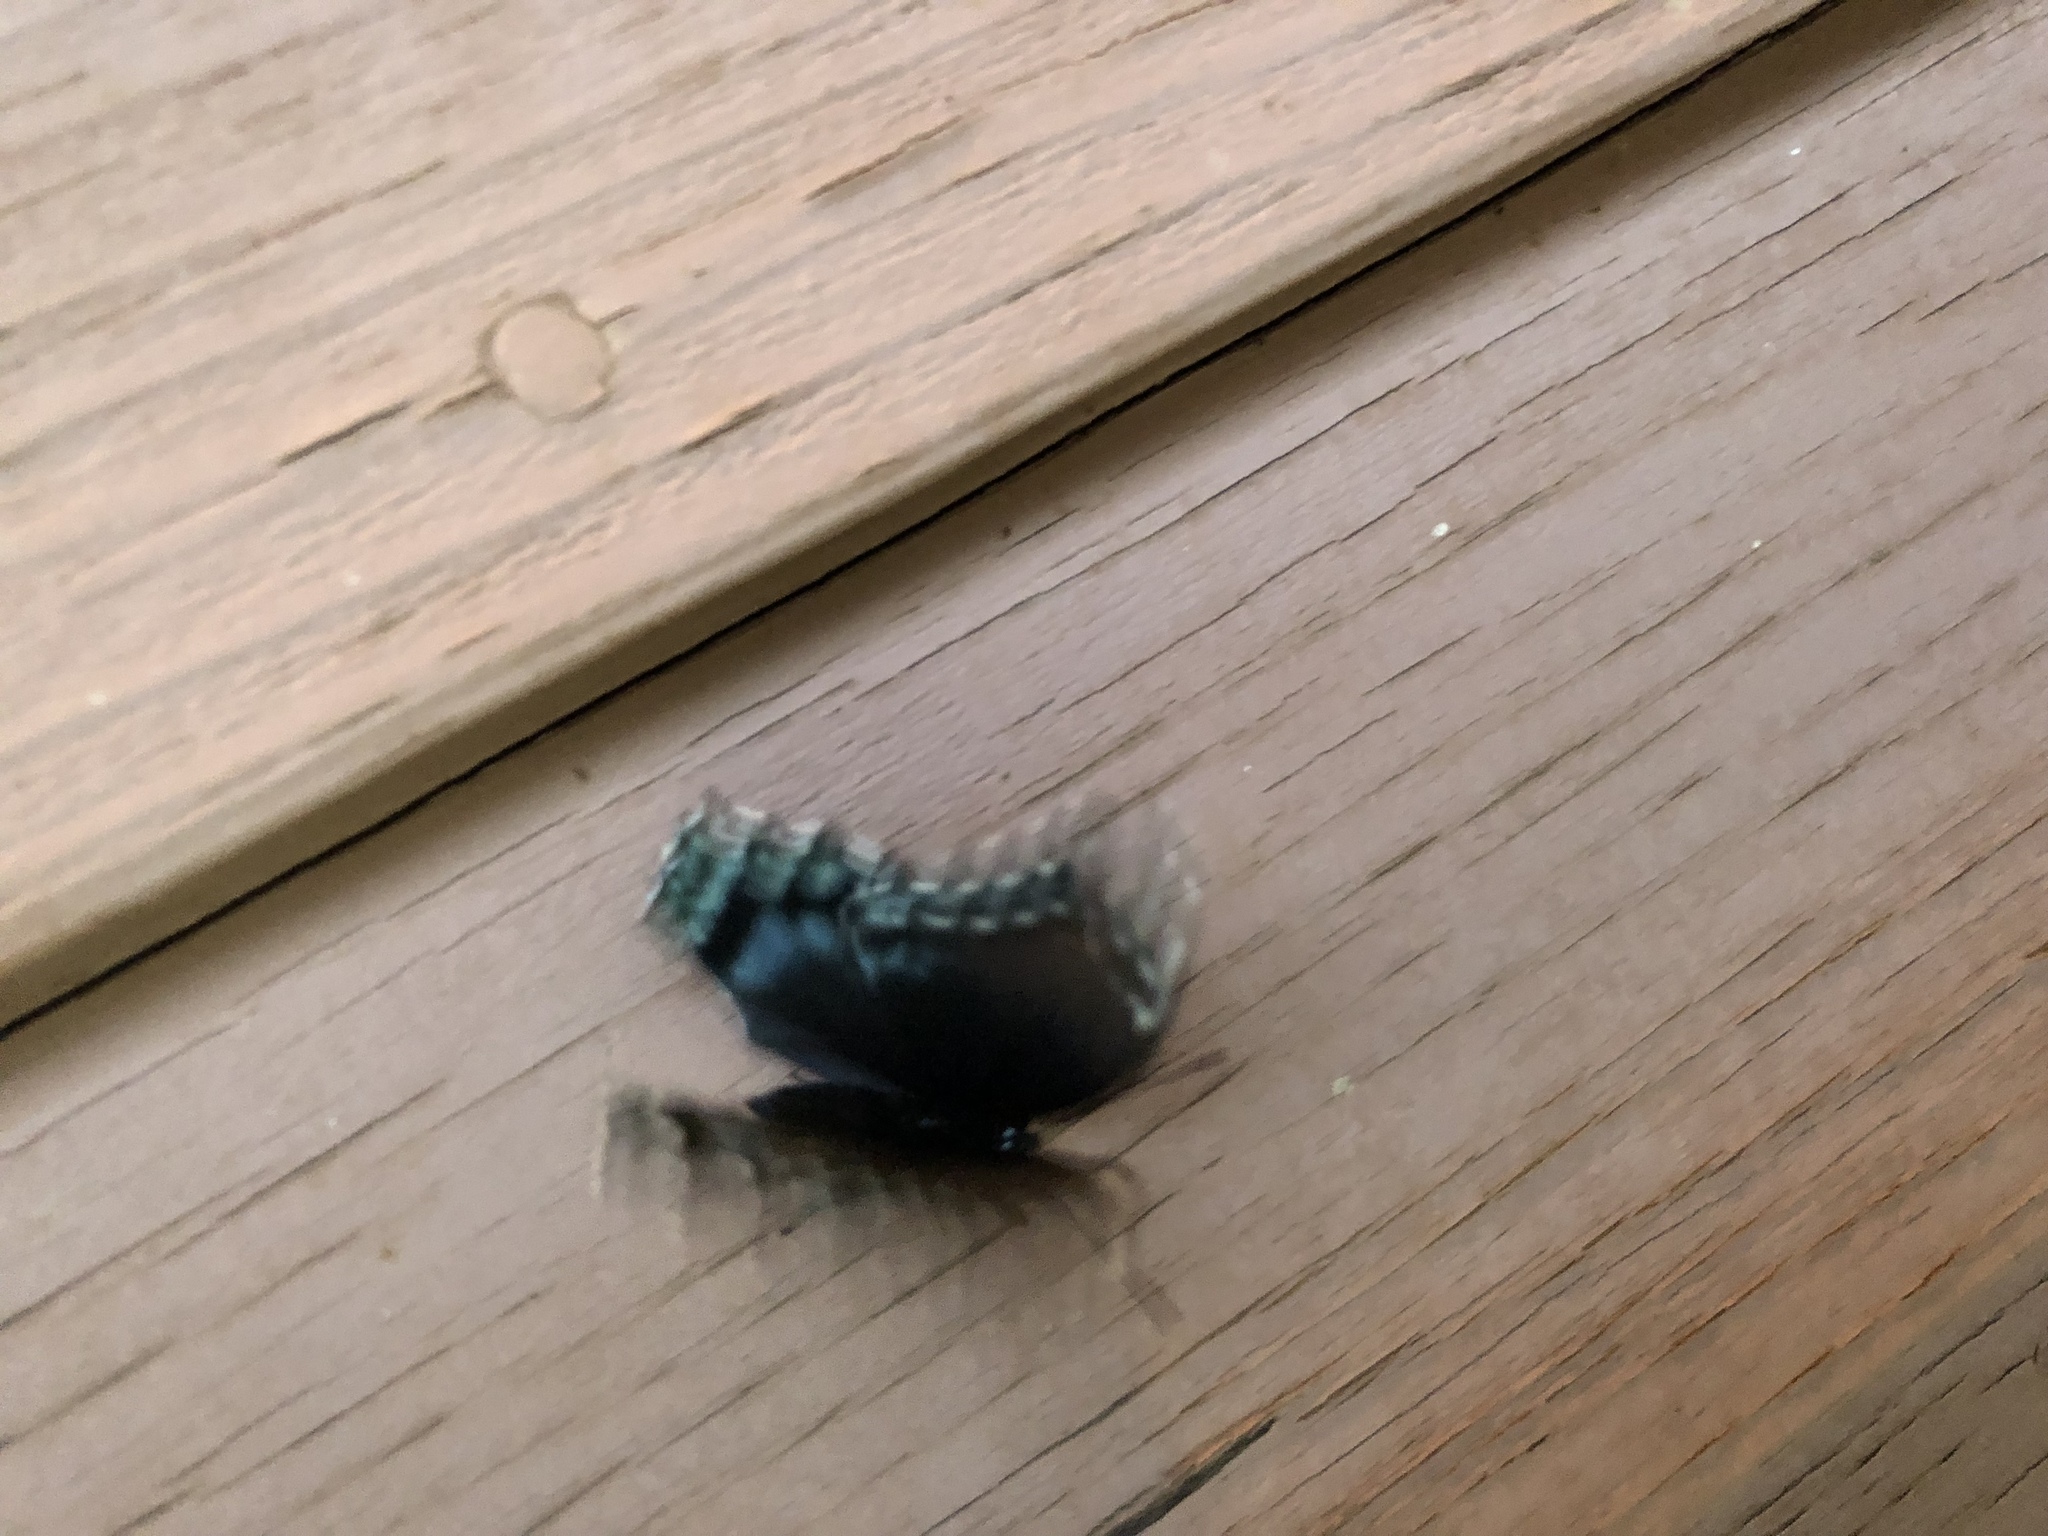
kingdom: Animalia
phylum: Arthropoda
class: Insecta
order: Lepidoptera
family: Nymphalidae
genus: Limenitis
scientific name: Limenitis astyanax
